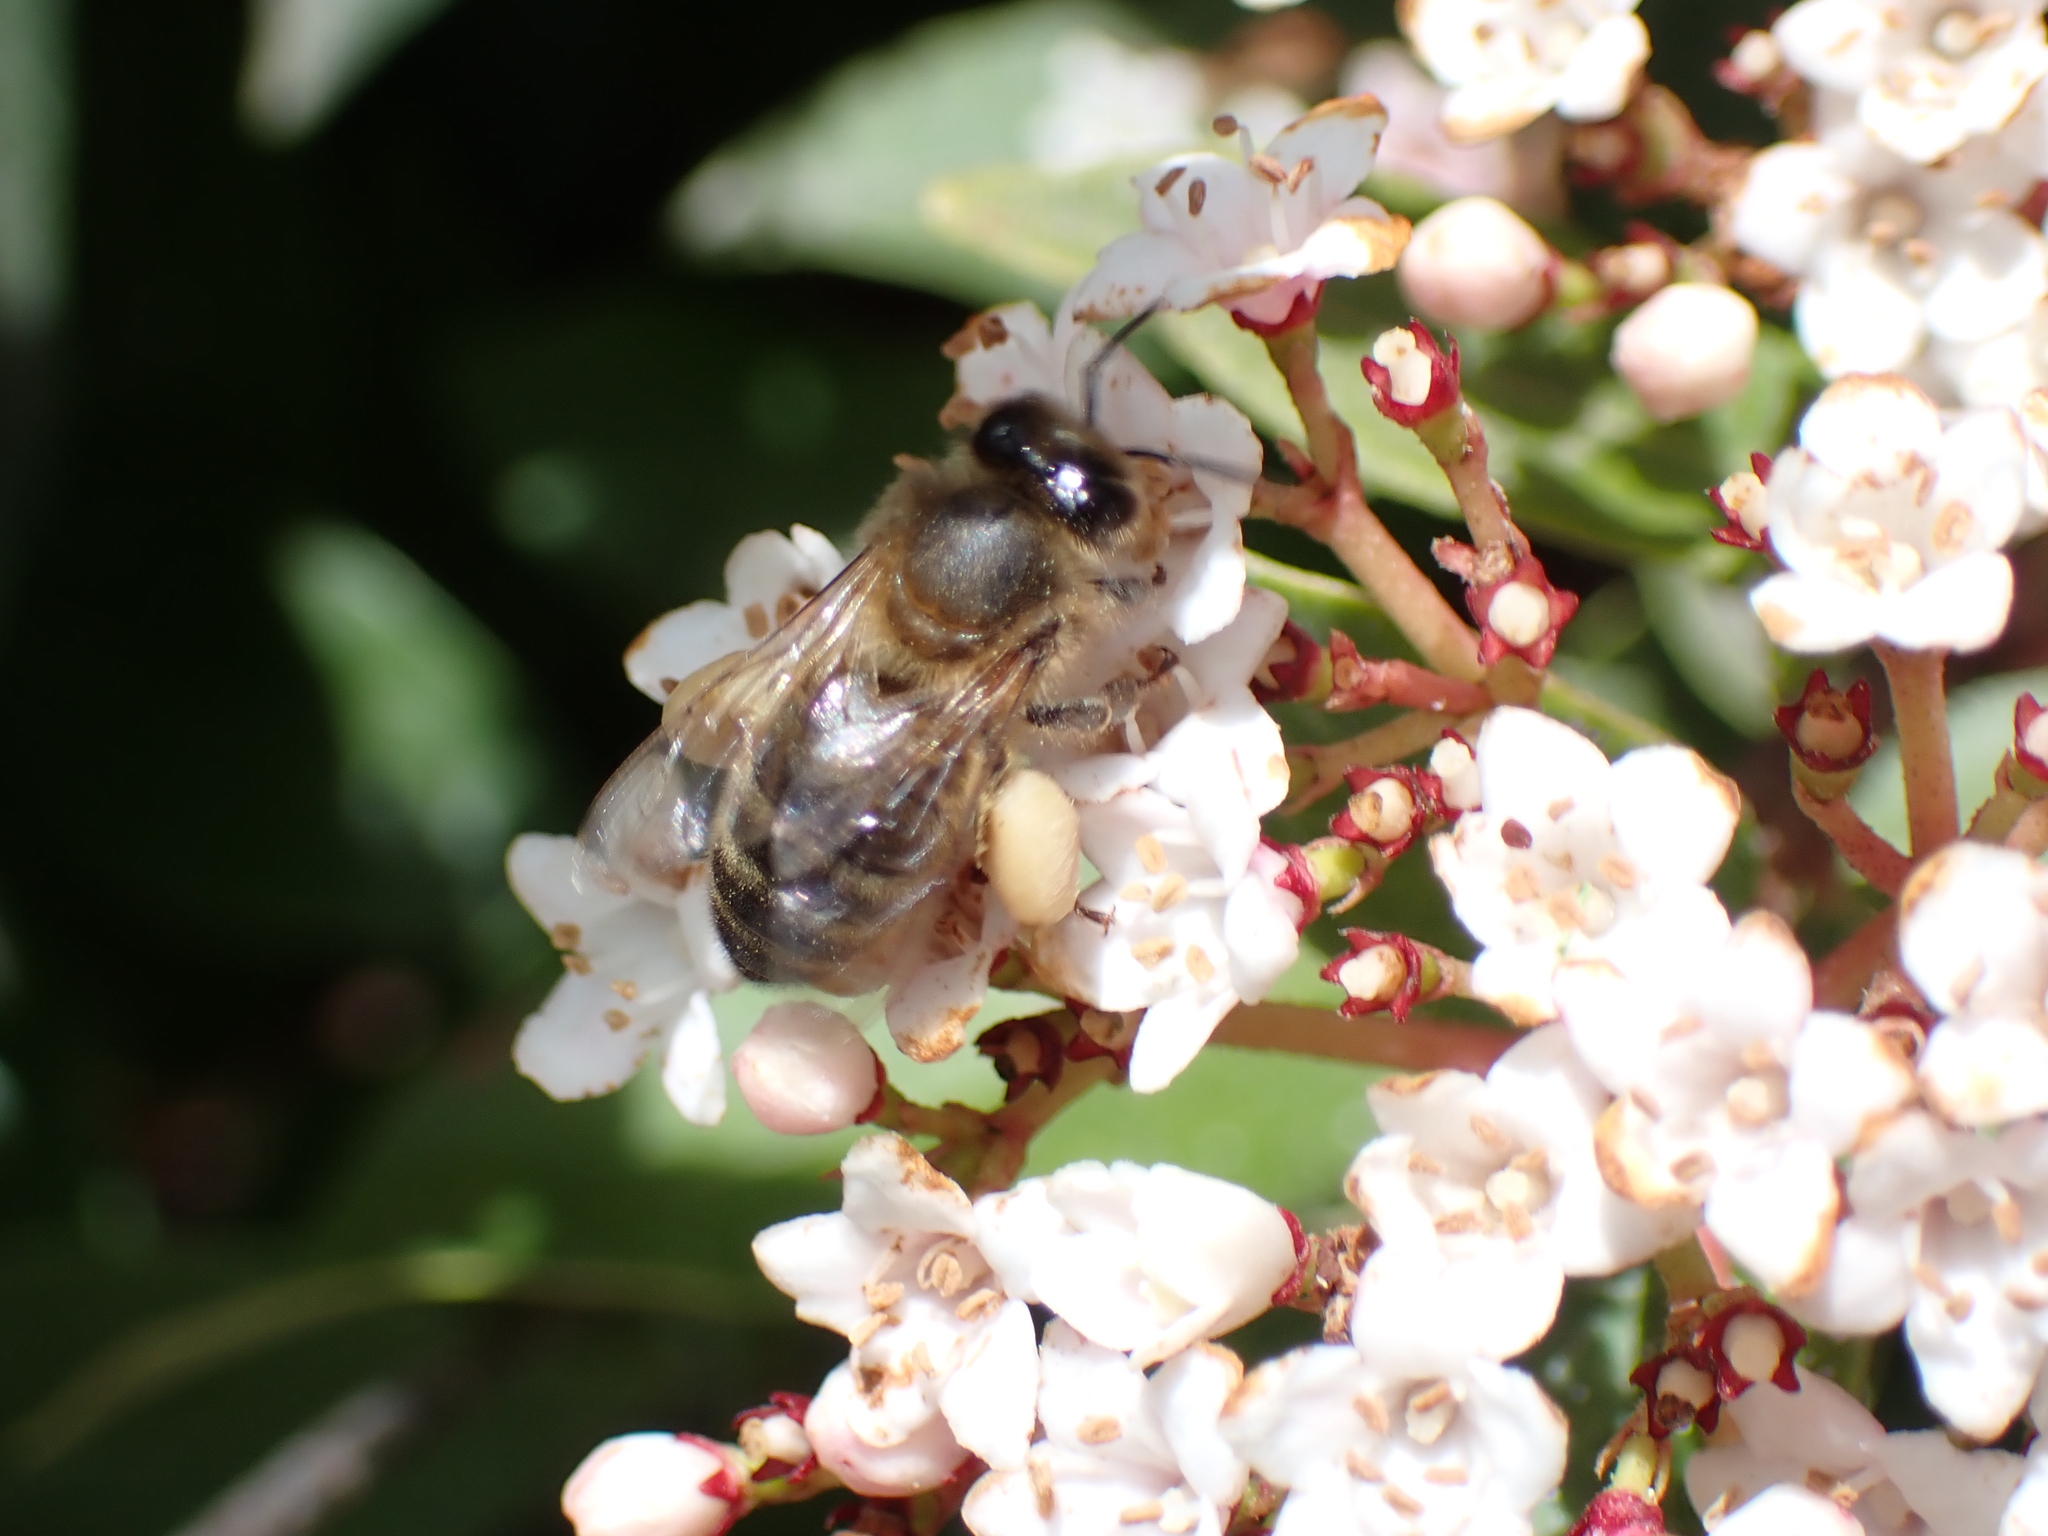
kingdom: Animalia
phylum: Arthropoda
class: Insecta
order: Hymenoptera
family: Apidae
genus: Apis
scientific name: Apis mellifera
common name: Honey bee
